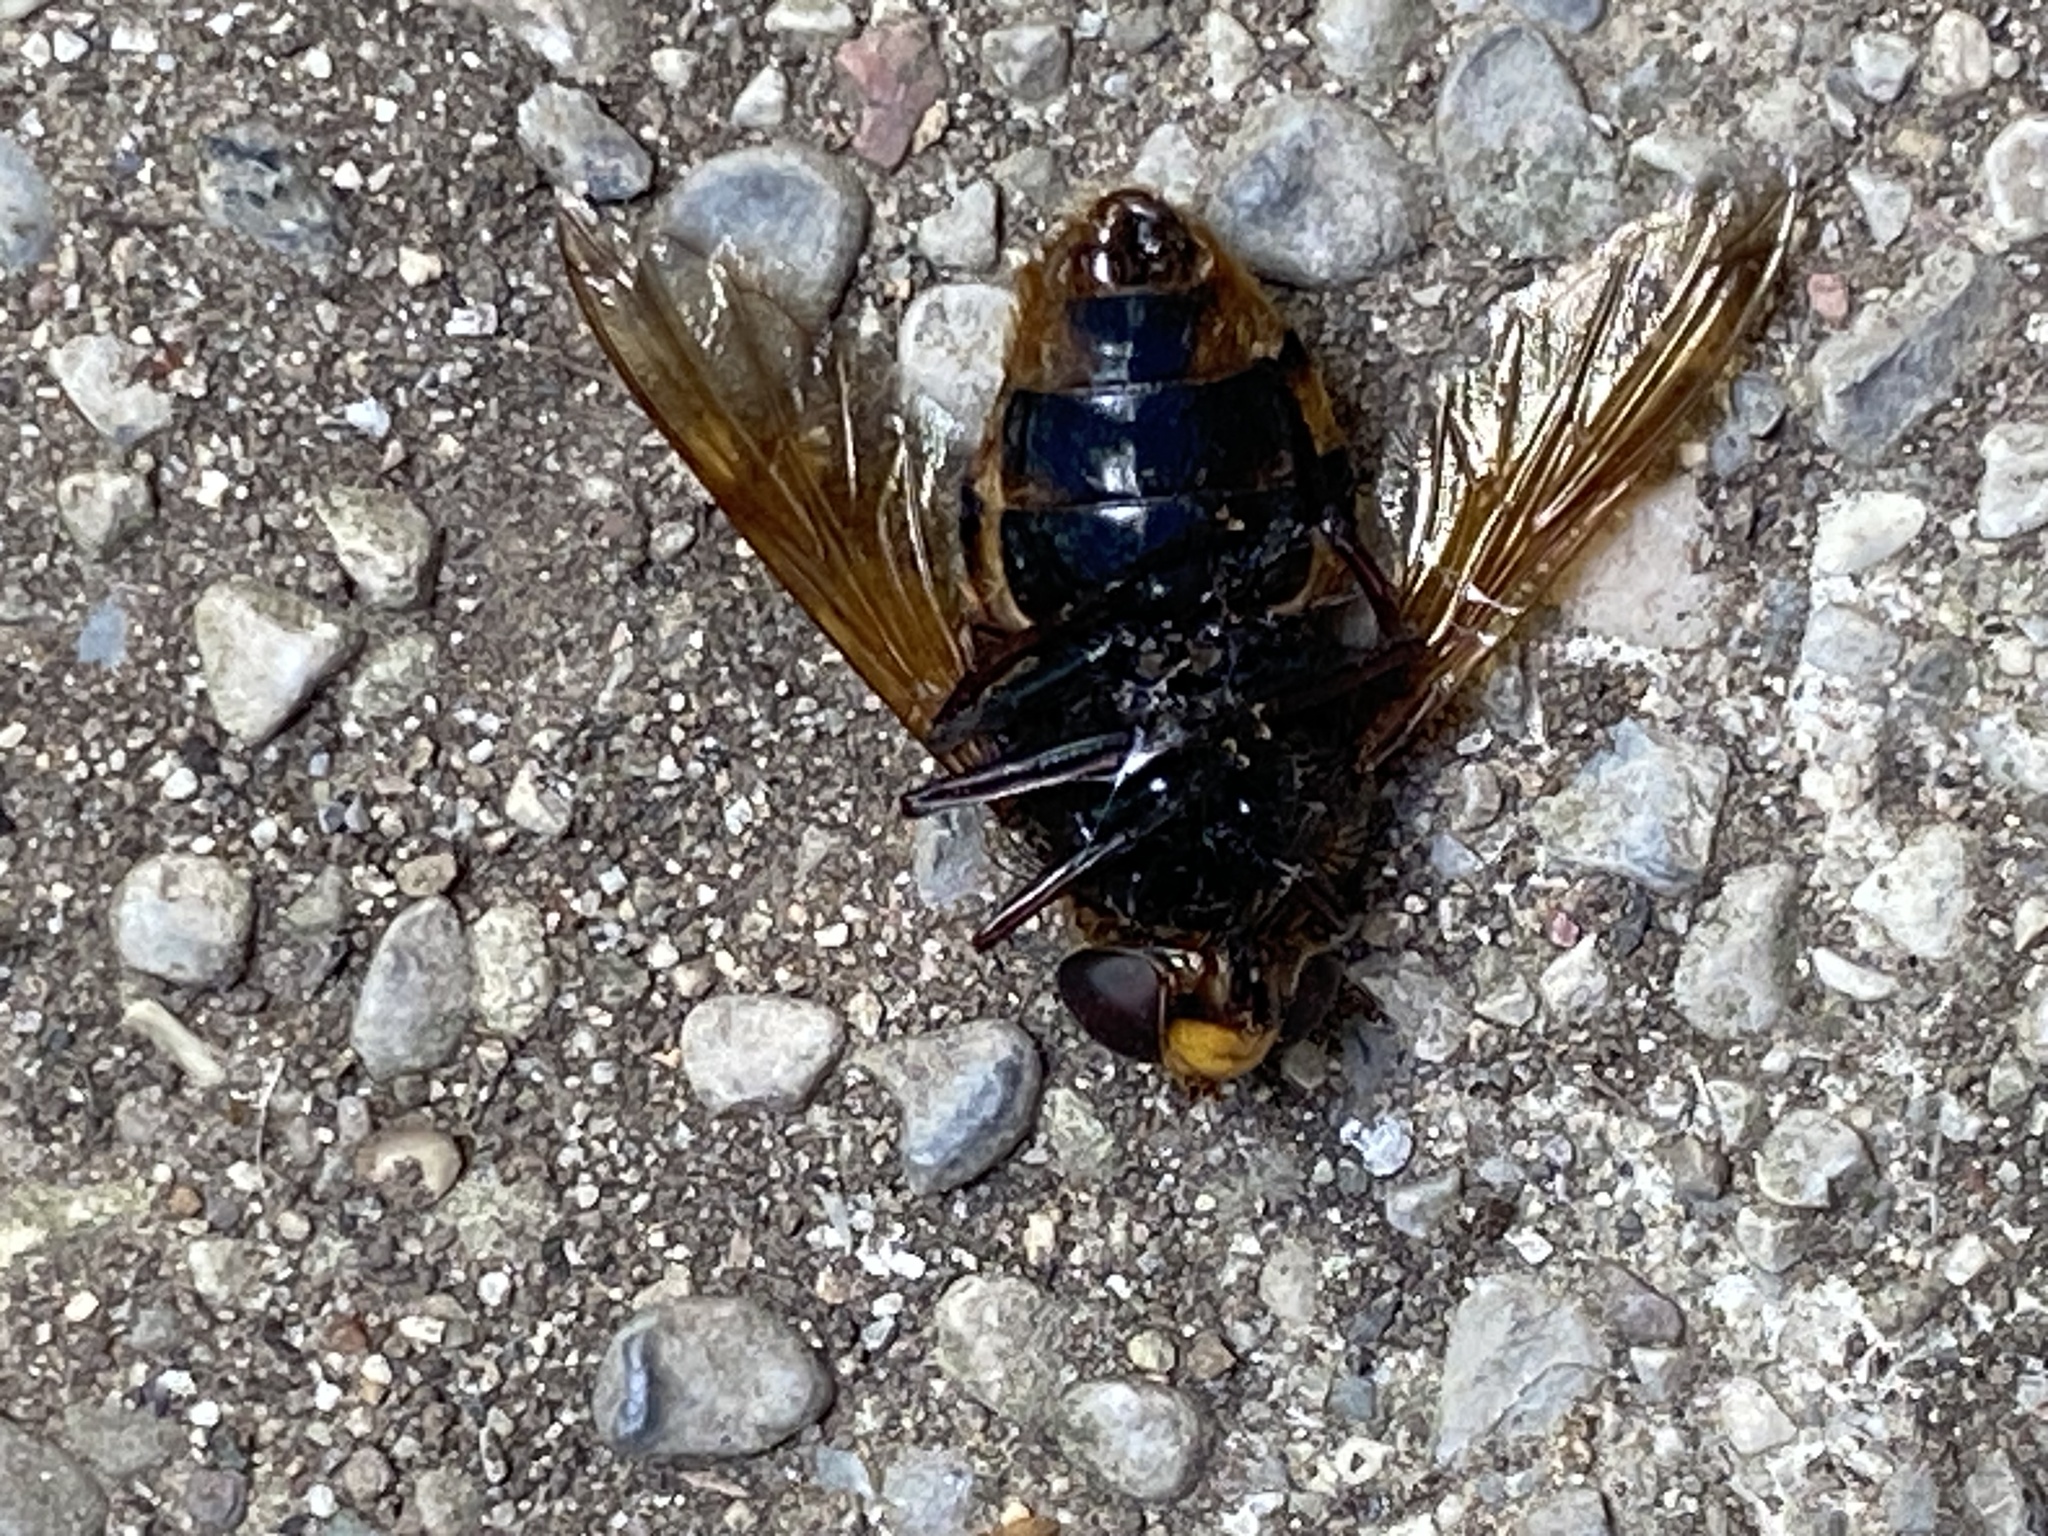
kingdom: Animalia
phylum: Arthropoda
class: Insecta
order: Diptera
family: Syrphidae
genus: Volucella
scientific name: Volucella zonaria
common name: Hornet hoverfly
